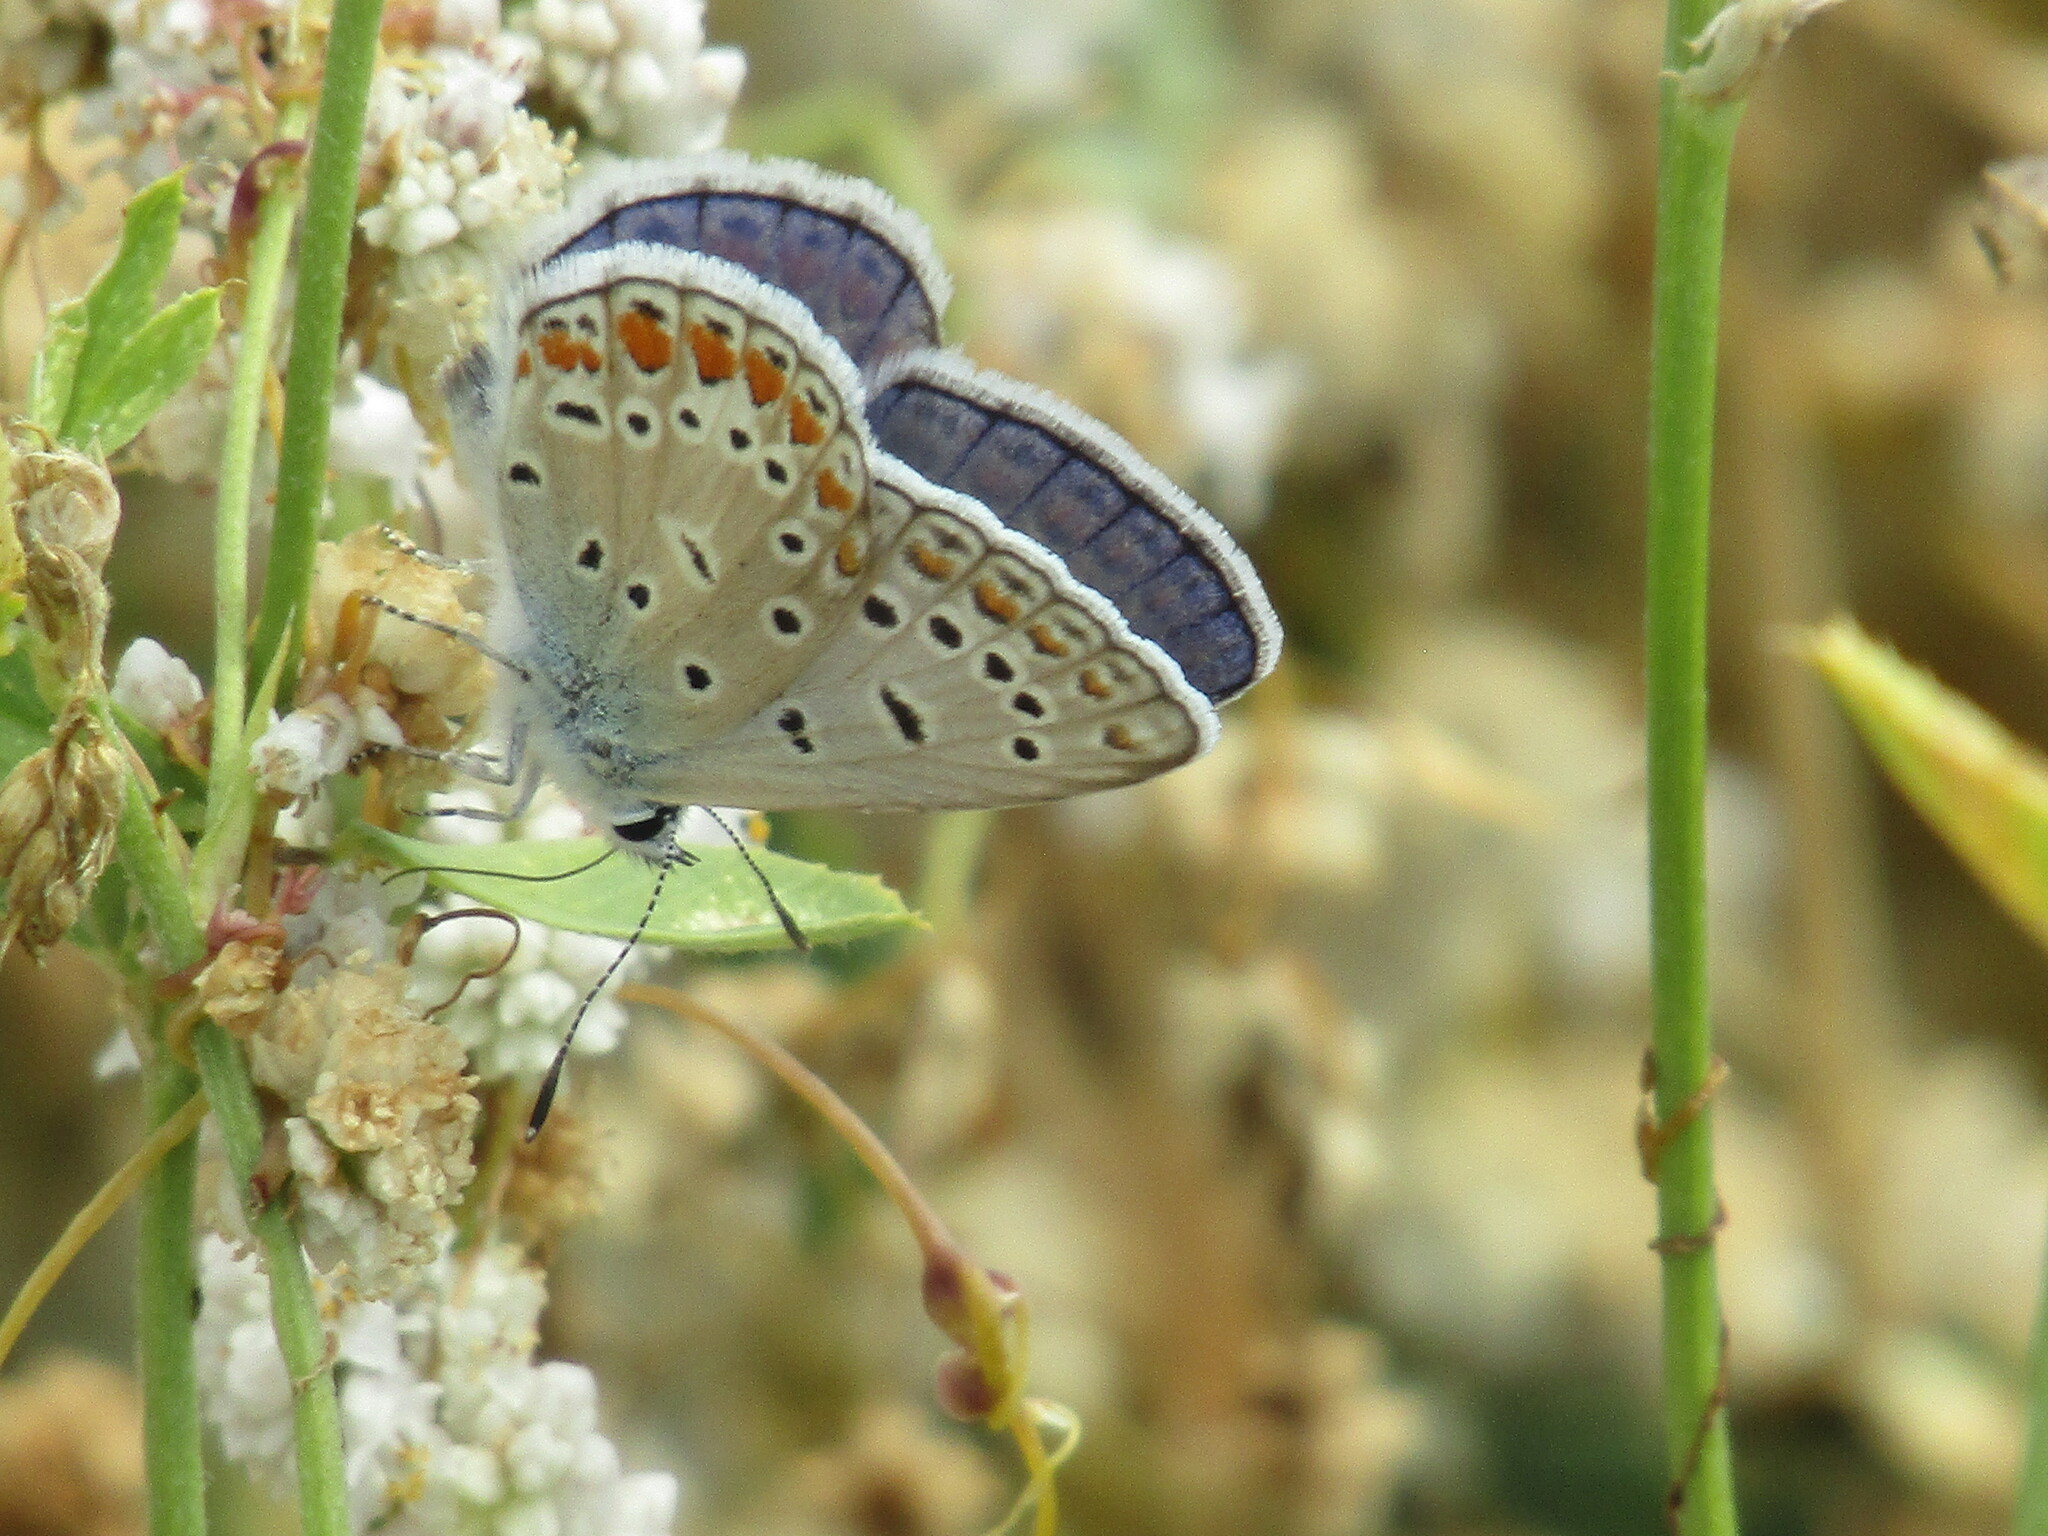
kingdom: Animalia
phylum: Arthropoda
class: Insecta
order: Lepidoptera
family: Lycaenidae
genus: Polyommatus
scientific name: Polyommatus icarus
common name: Common blue
